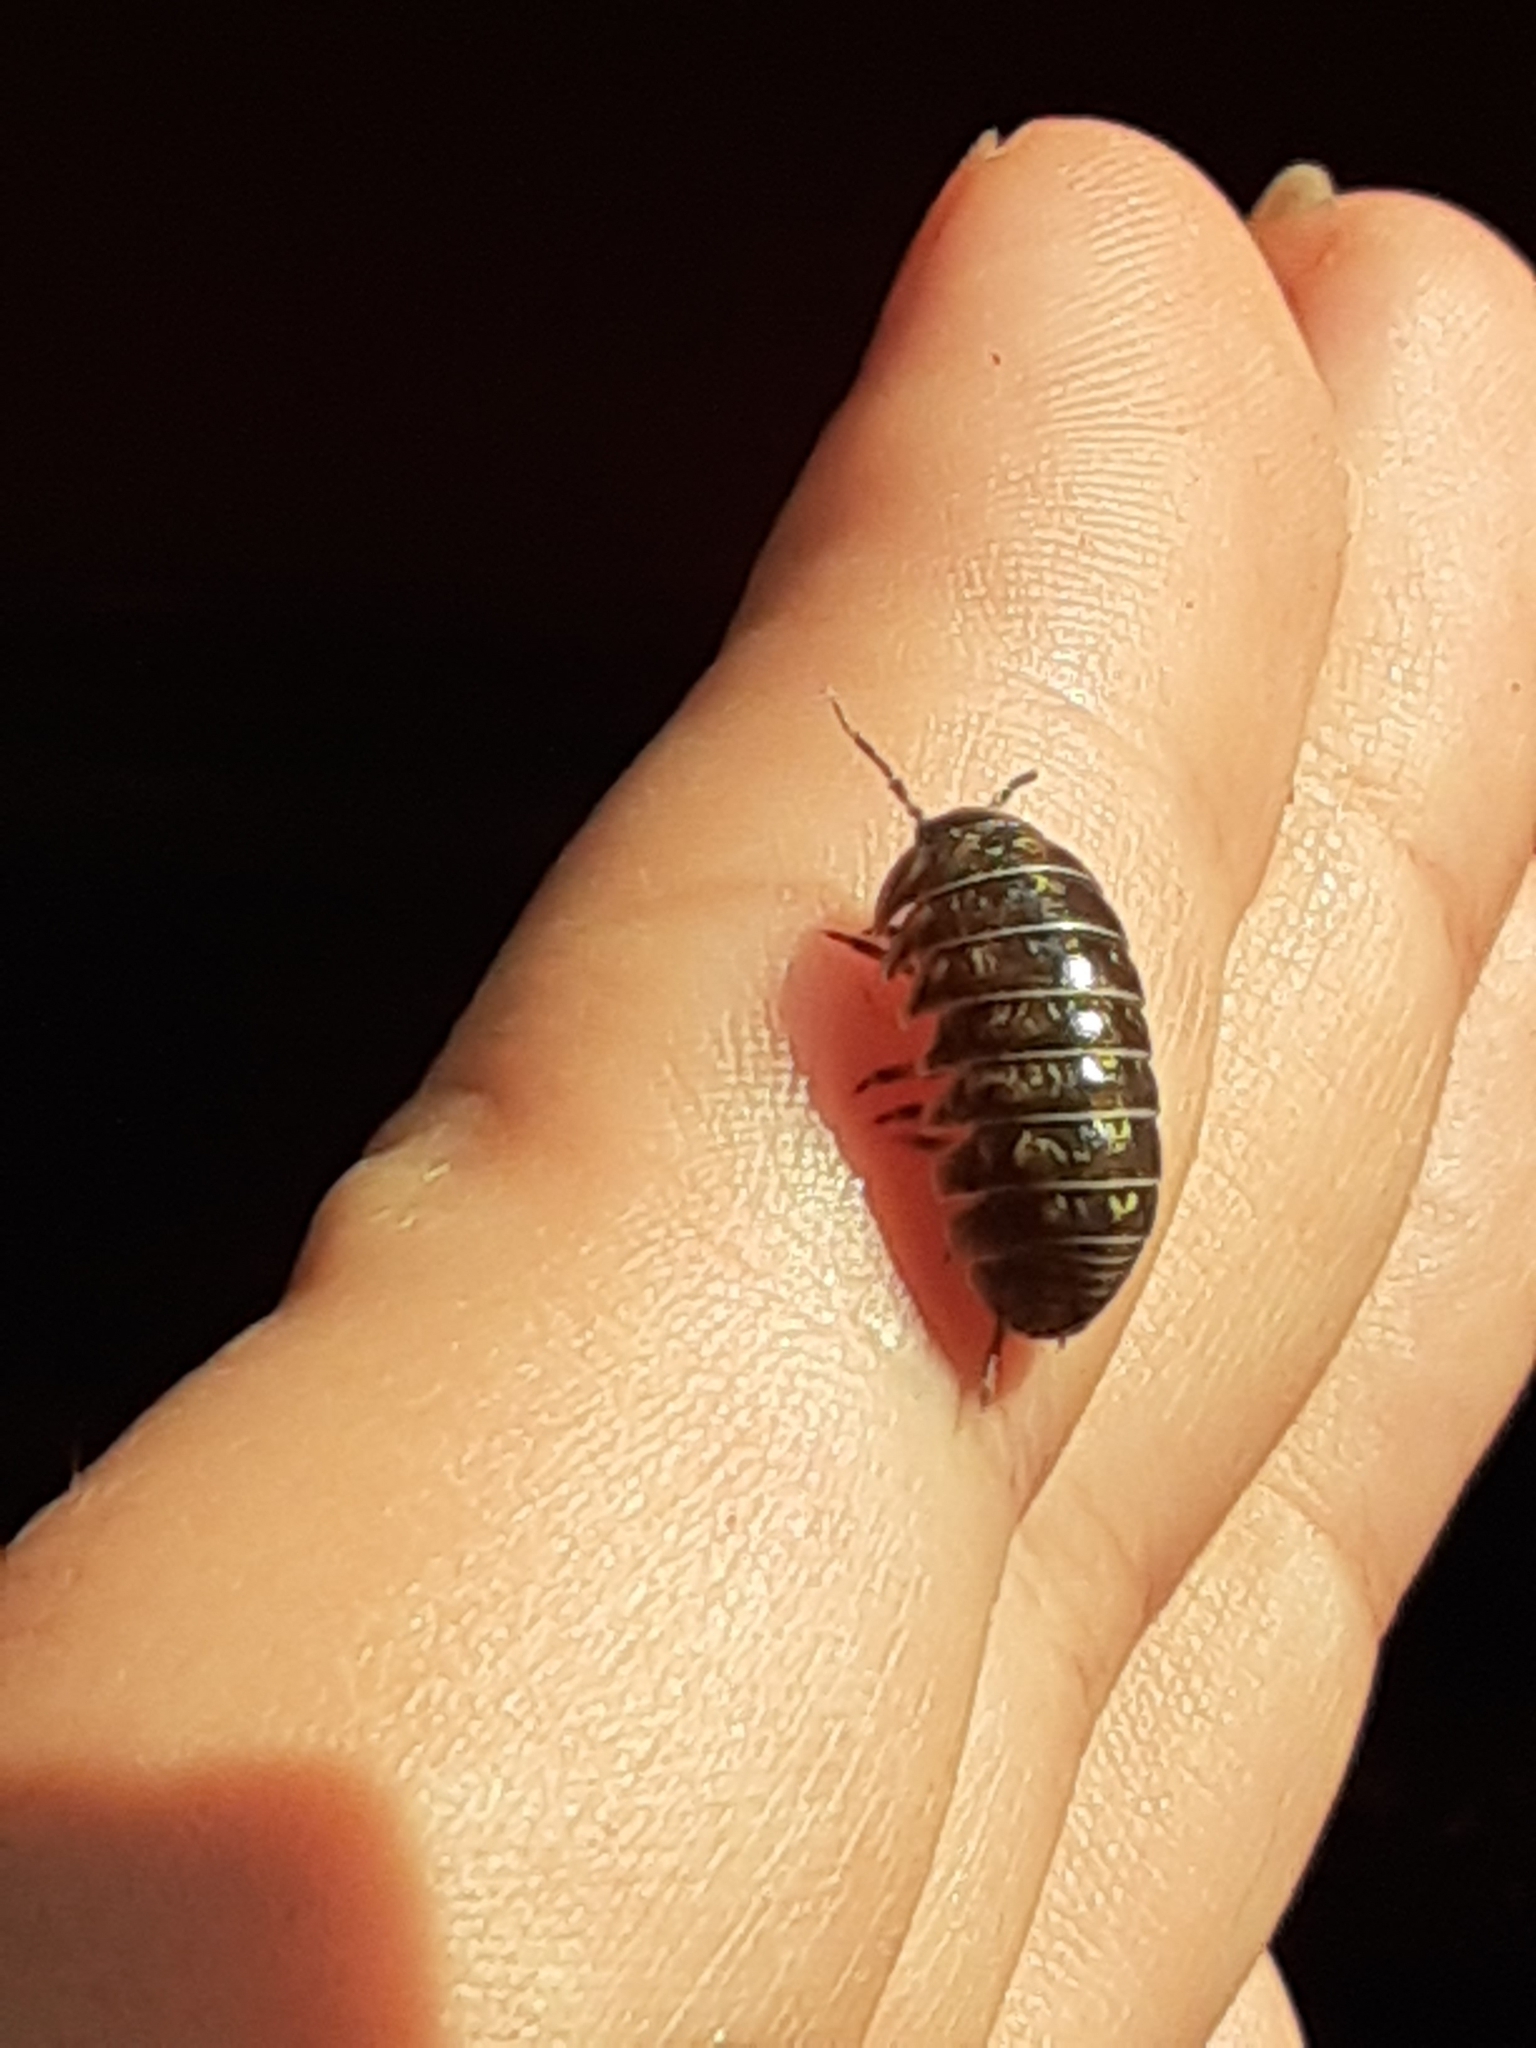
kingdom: Animalia
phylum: Arthropoda
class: Malacostraca
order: Isopoda
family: Armadillidiidae
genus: Armadillidium
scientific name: Armadillidium vulgare
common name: Common pill woodlouse
